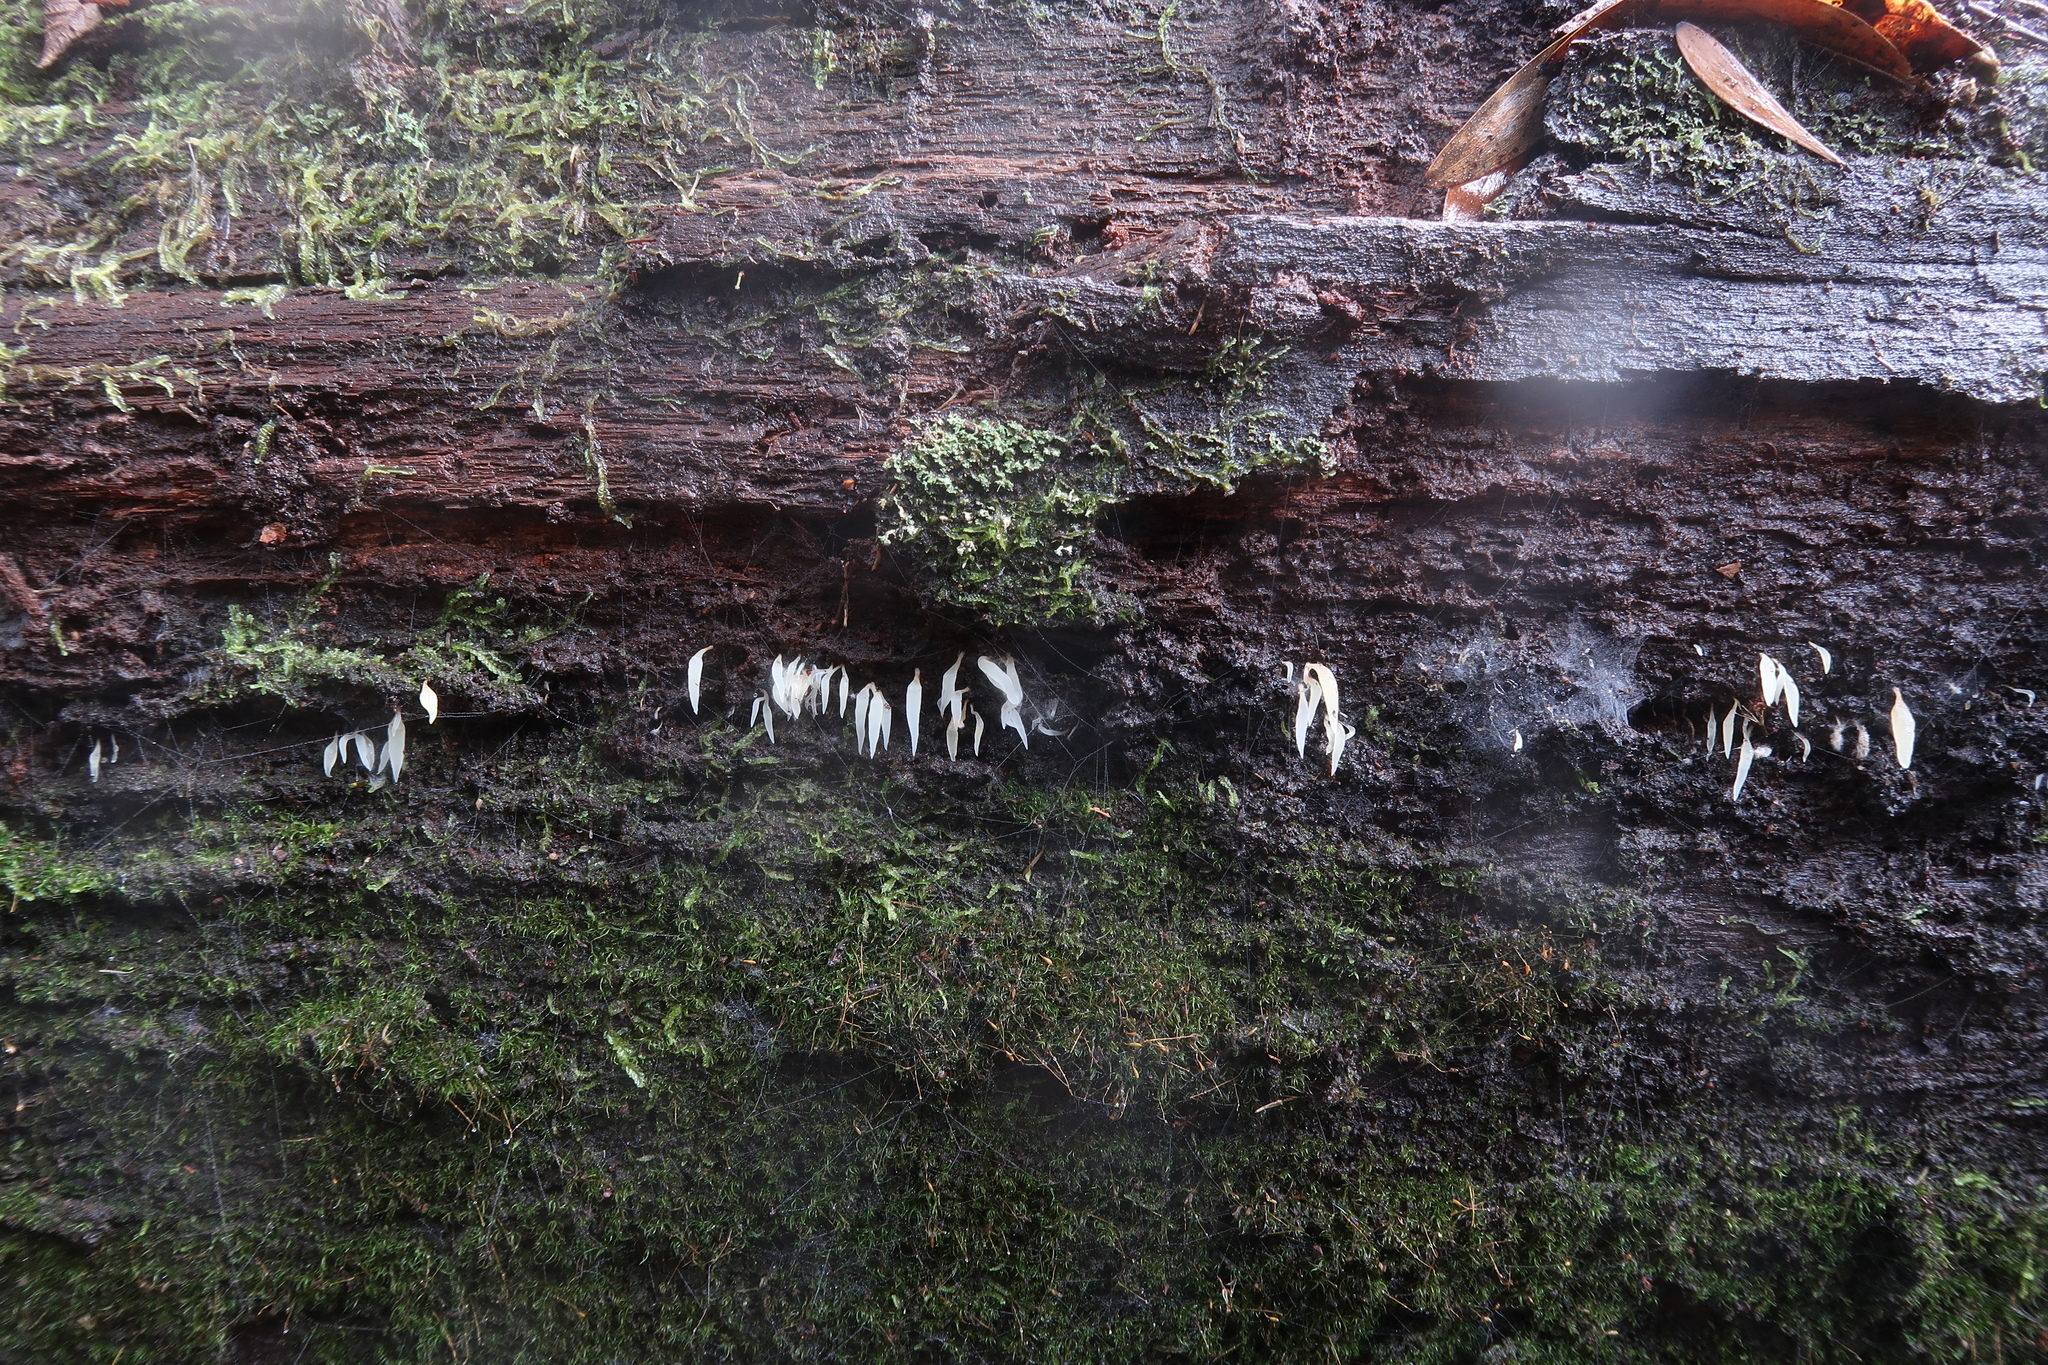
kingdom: Fungi
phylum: Basidiomycota
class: Agaricomycetes
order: Agaricales
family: Clavariaceae
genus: Mucronella
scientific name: Mucronella pendula
